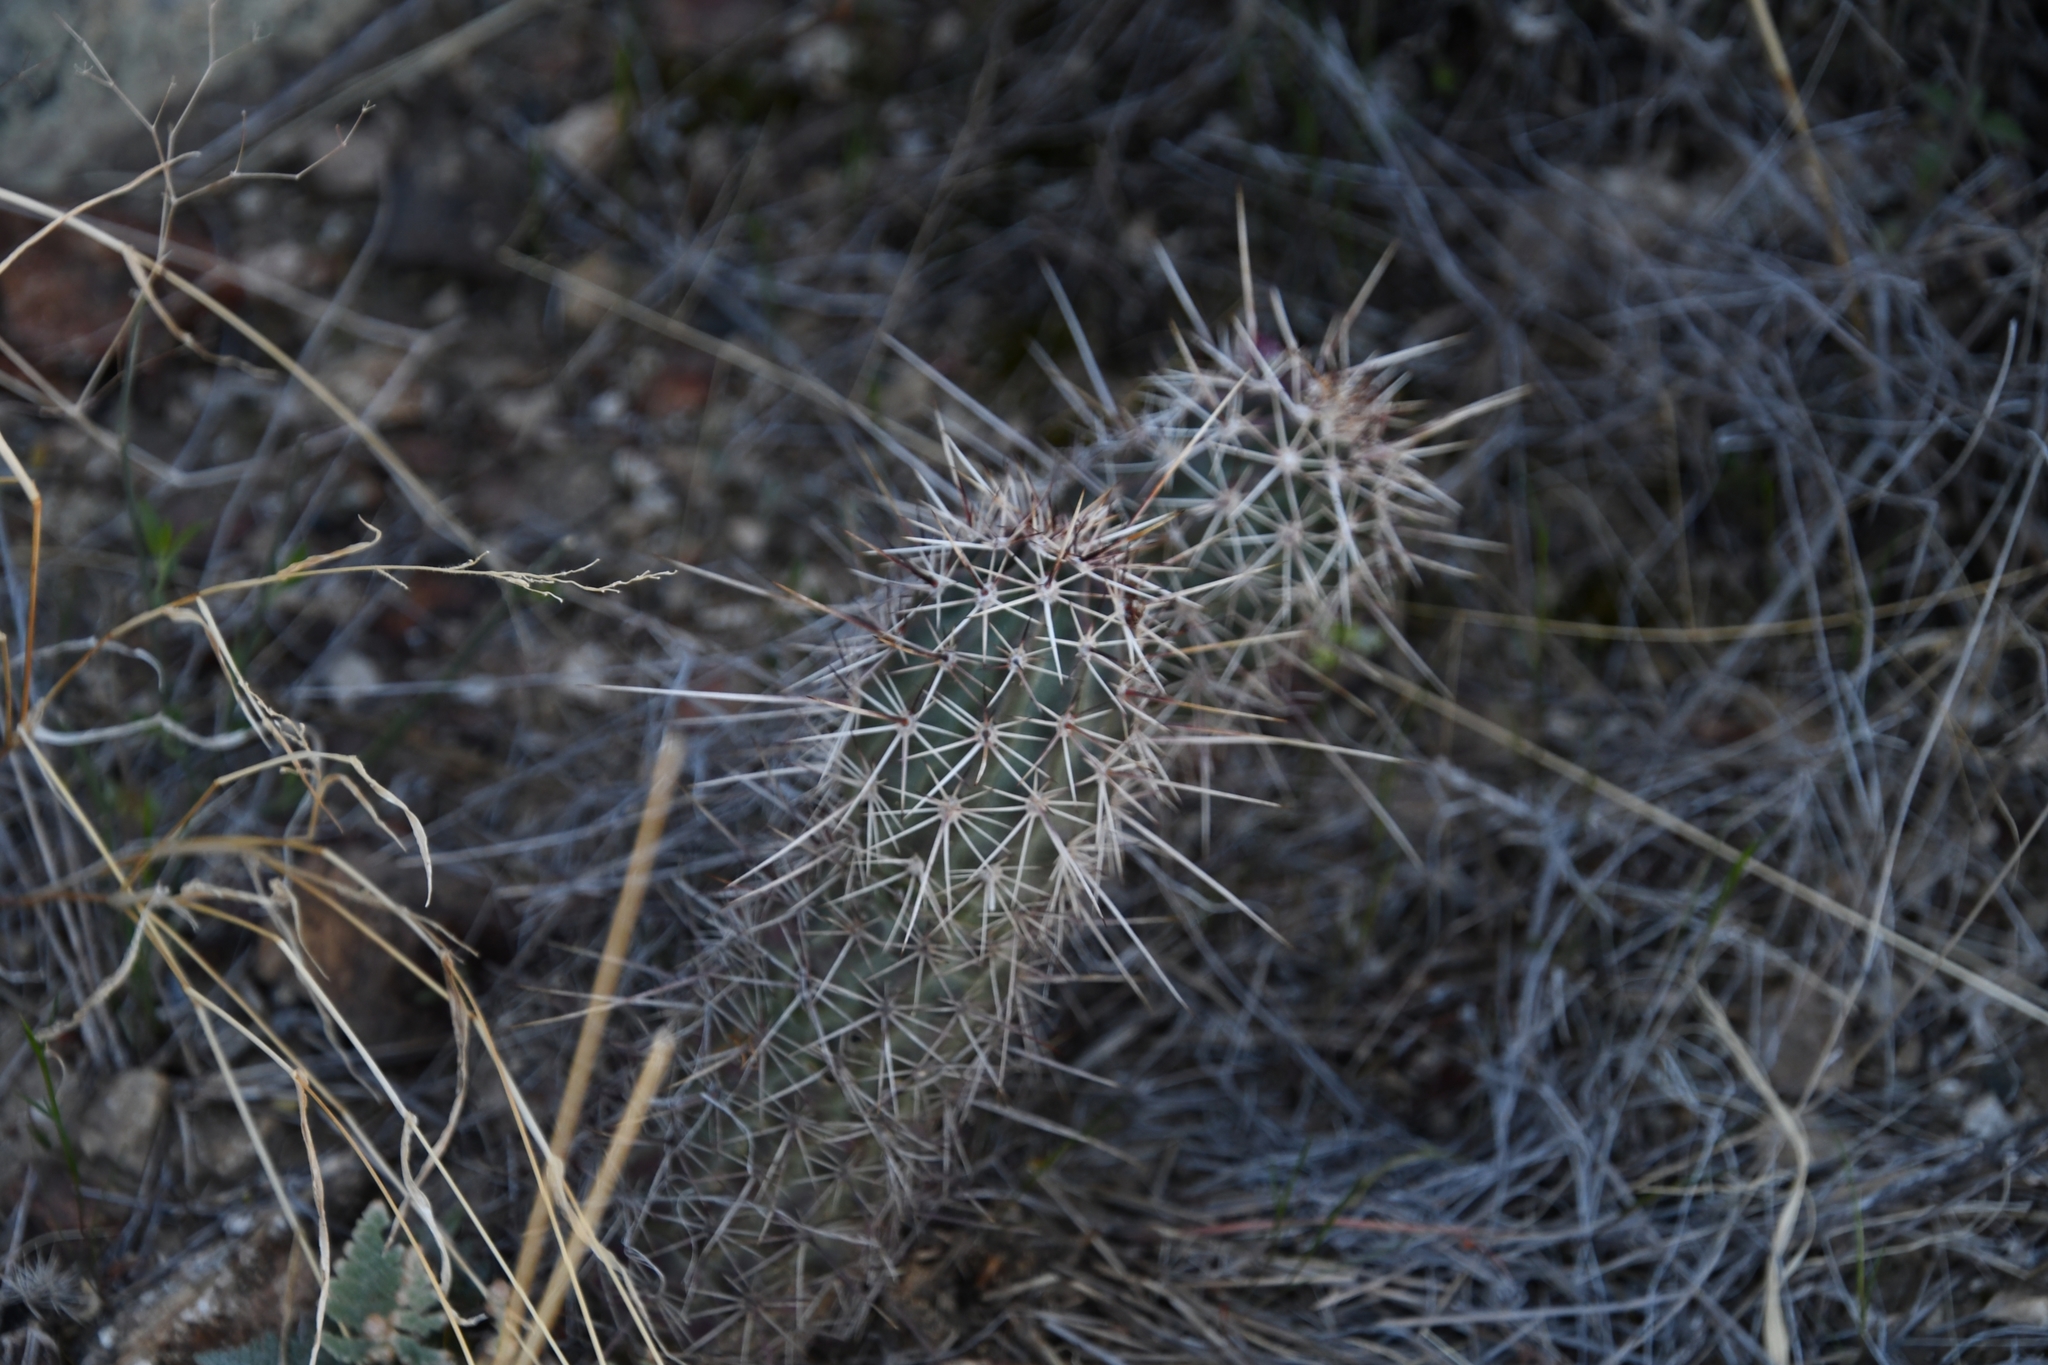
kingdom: Plantae
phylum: Tracheophyta
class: Magnoliopsida
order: Caryophyllales
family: Cactaceae
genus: Echinocereus
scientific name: Echinocereus fasciculatus
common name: Bundle hedgehog
